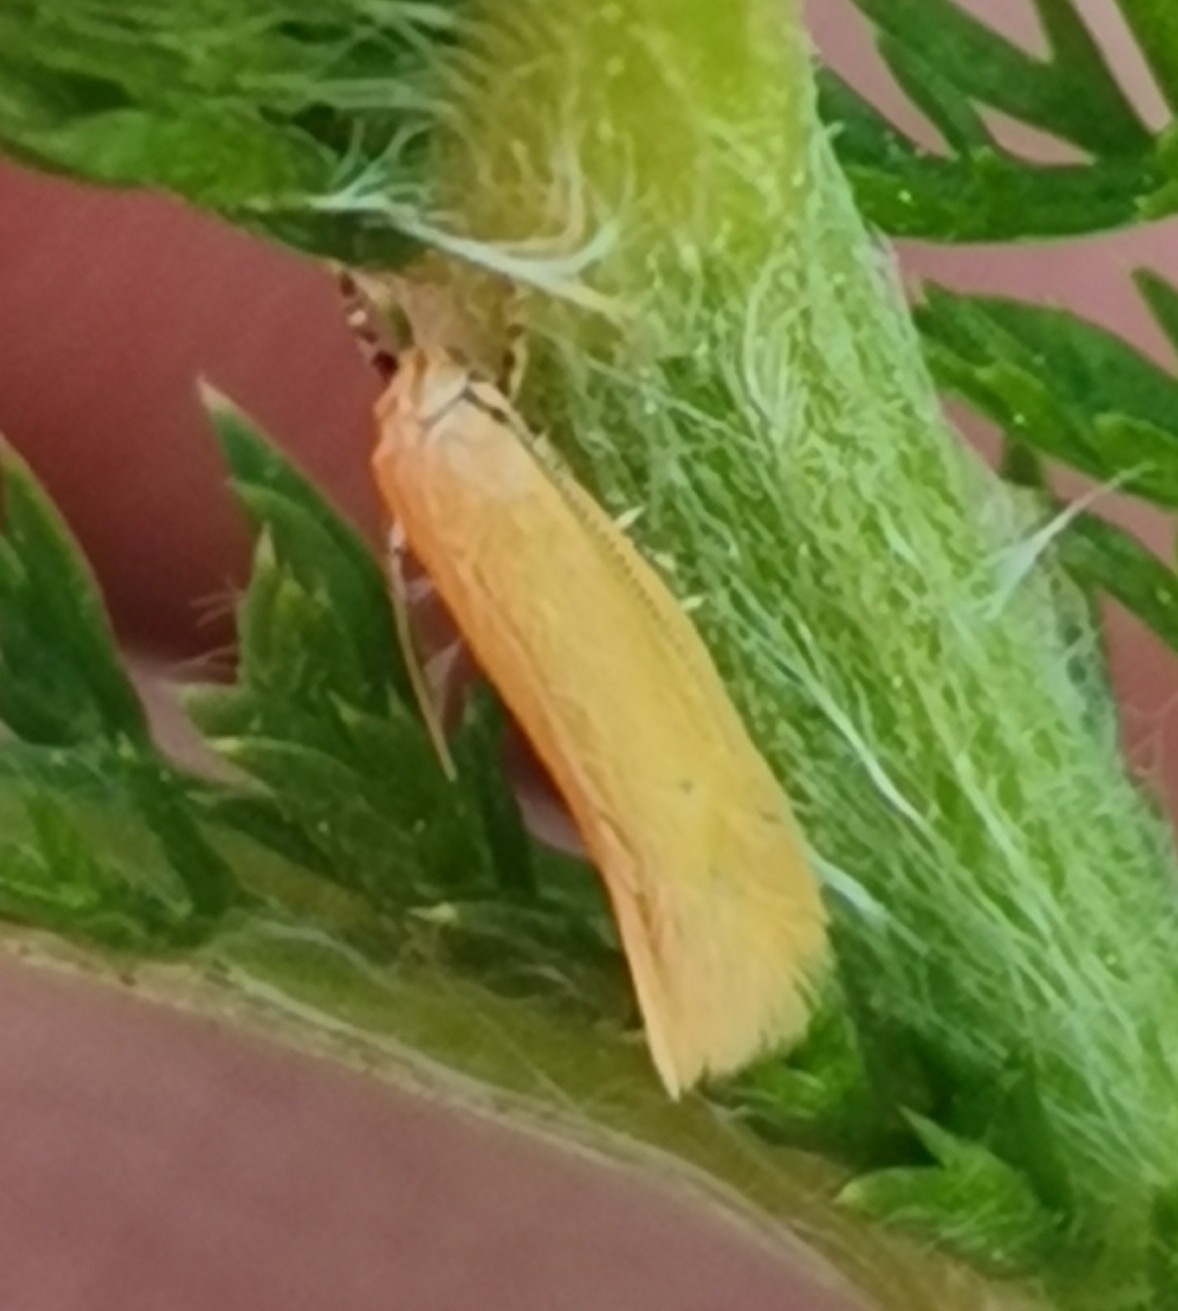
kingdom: Animalia
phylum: Arthropoda
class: Insecta
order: Lepidoptera
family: Elachistidae
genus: Elachista
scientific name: Elachista subalbidella
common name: Buff dwarf
